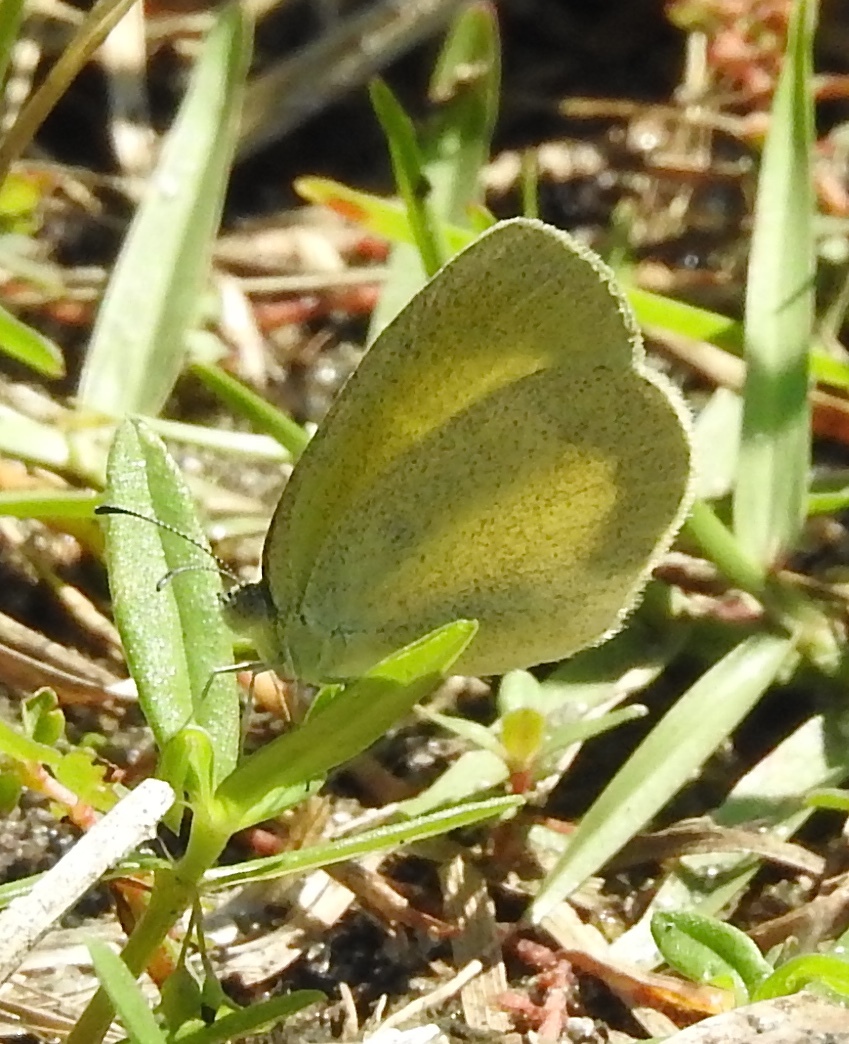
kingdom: Animalia
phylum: Arthropoda
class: Insecta
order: Lepidoptera
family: Pieridae
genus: Eurema
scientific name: Eurema daira
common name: Barred sulphur
